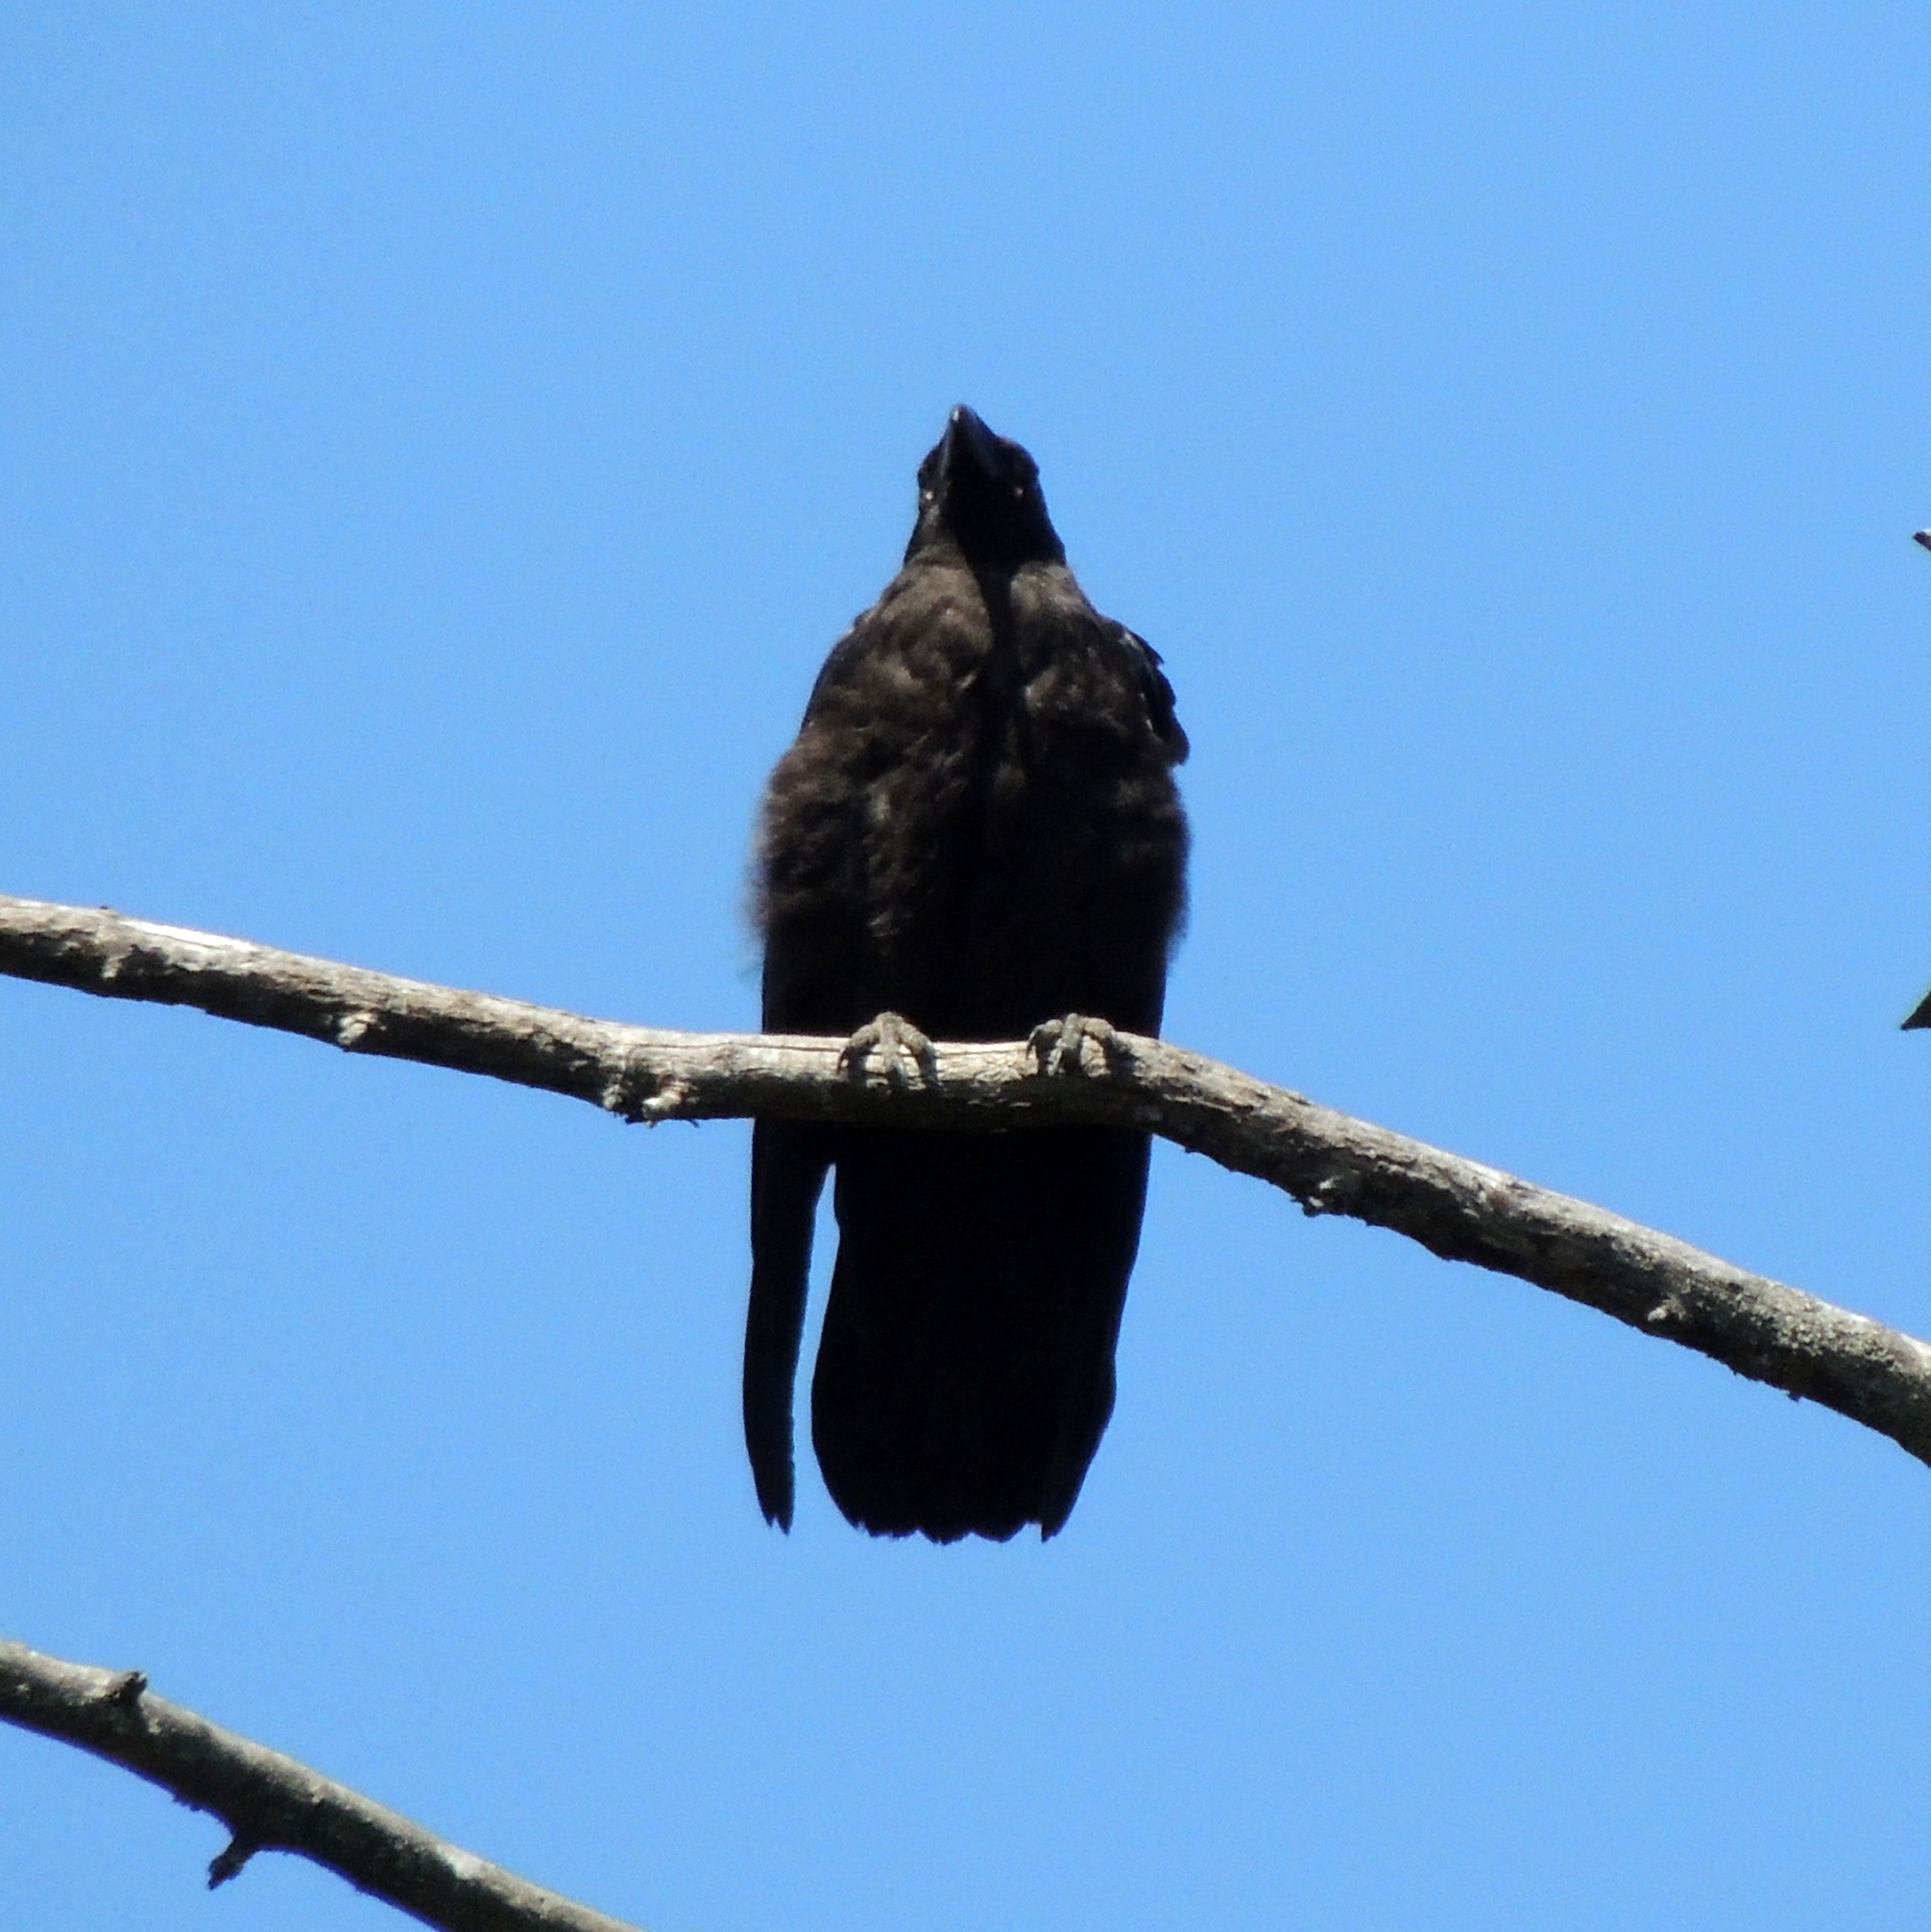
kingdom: Animalia
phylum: Chordata
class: Aves
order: Passeriformes
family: Corvidae
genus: Corvus
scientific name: Corvus corax
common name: Common raven
